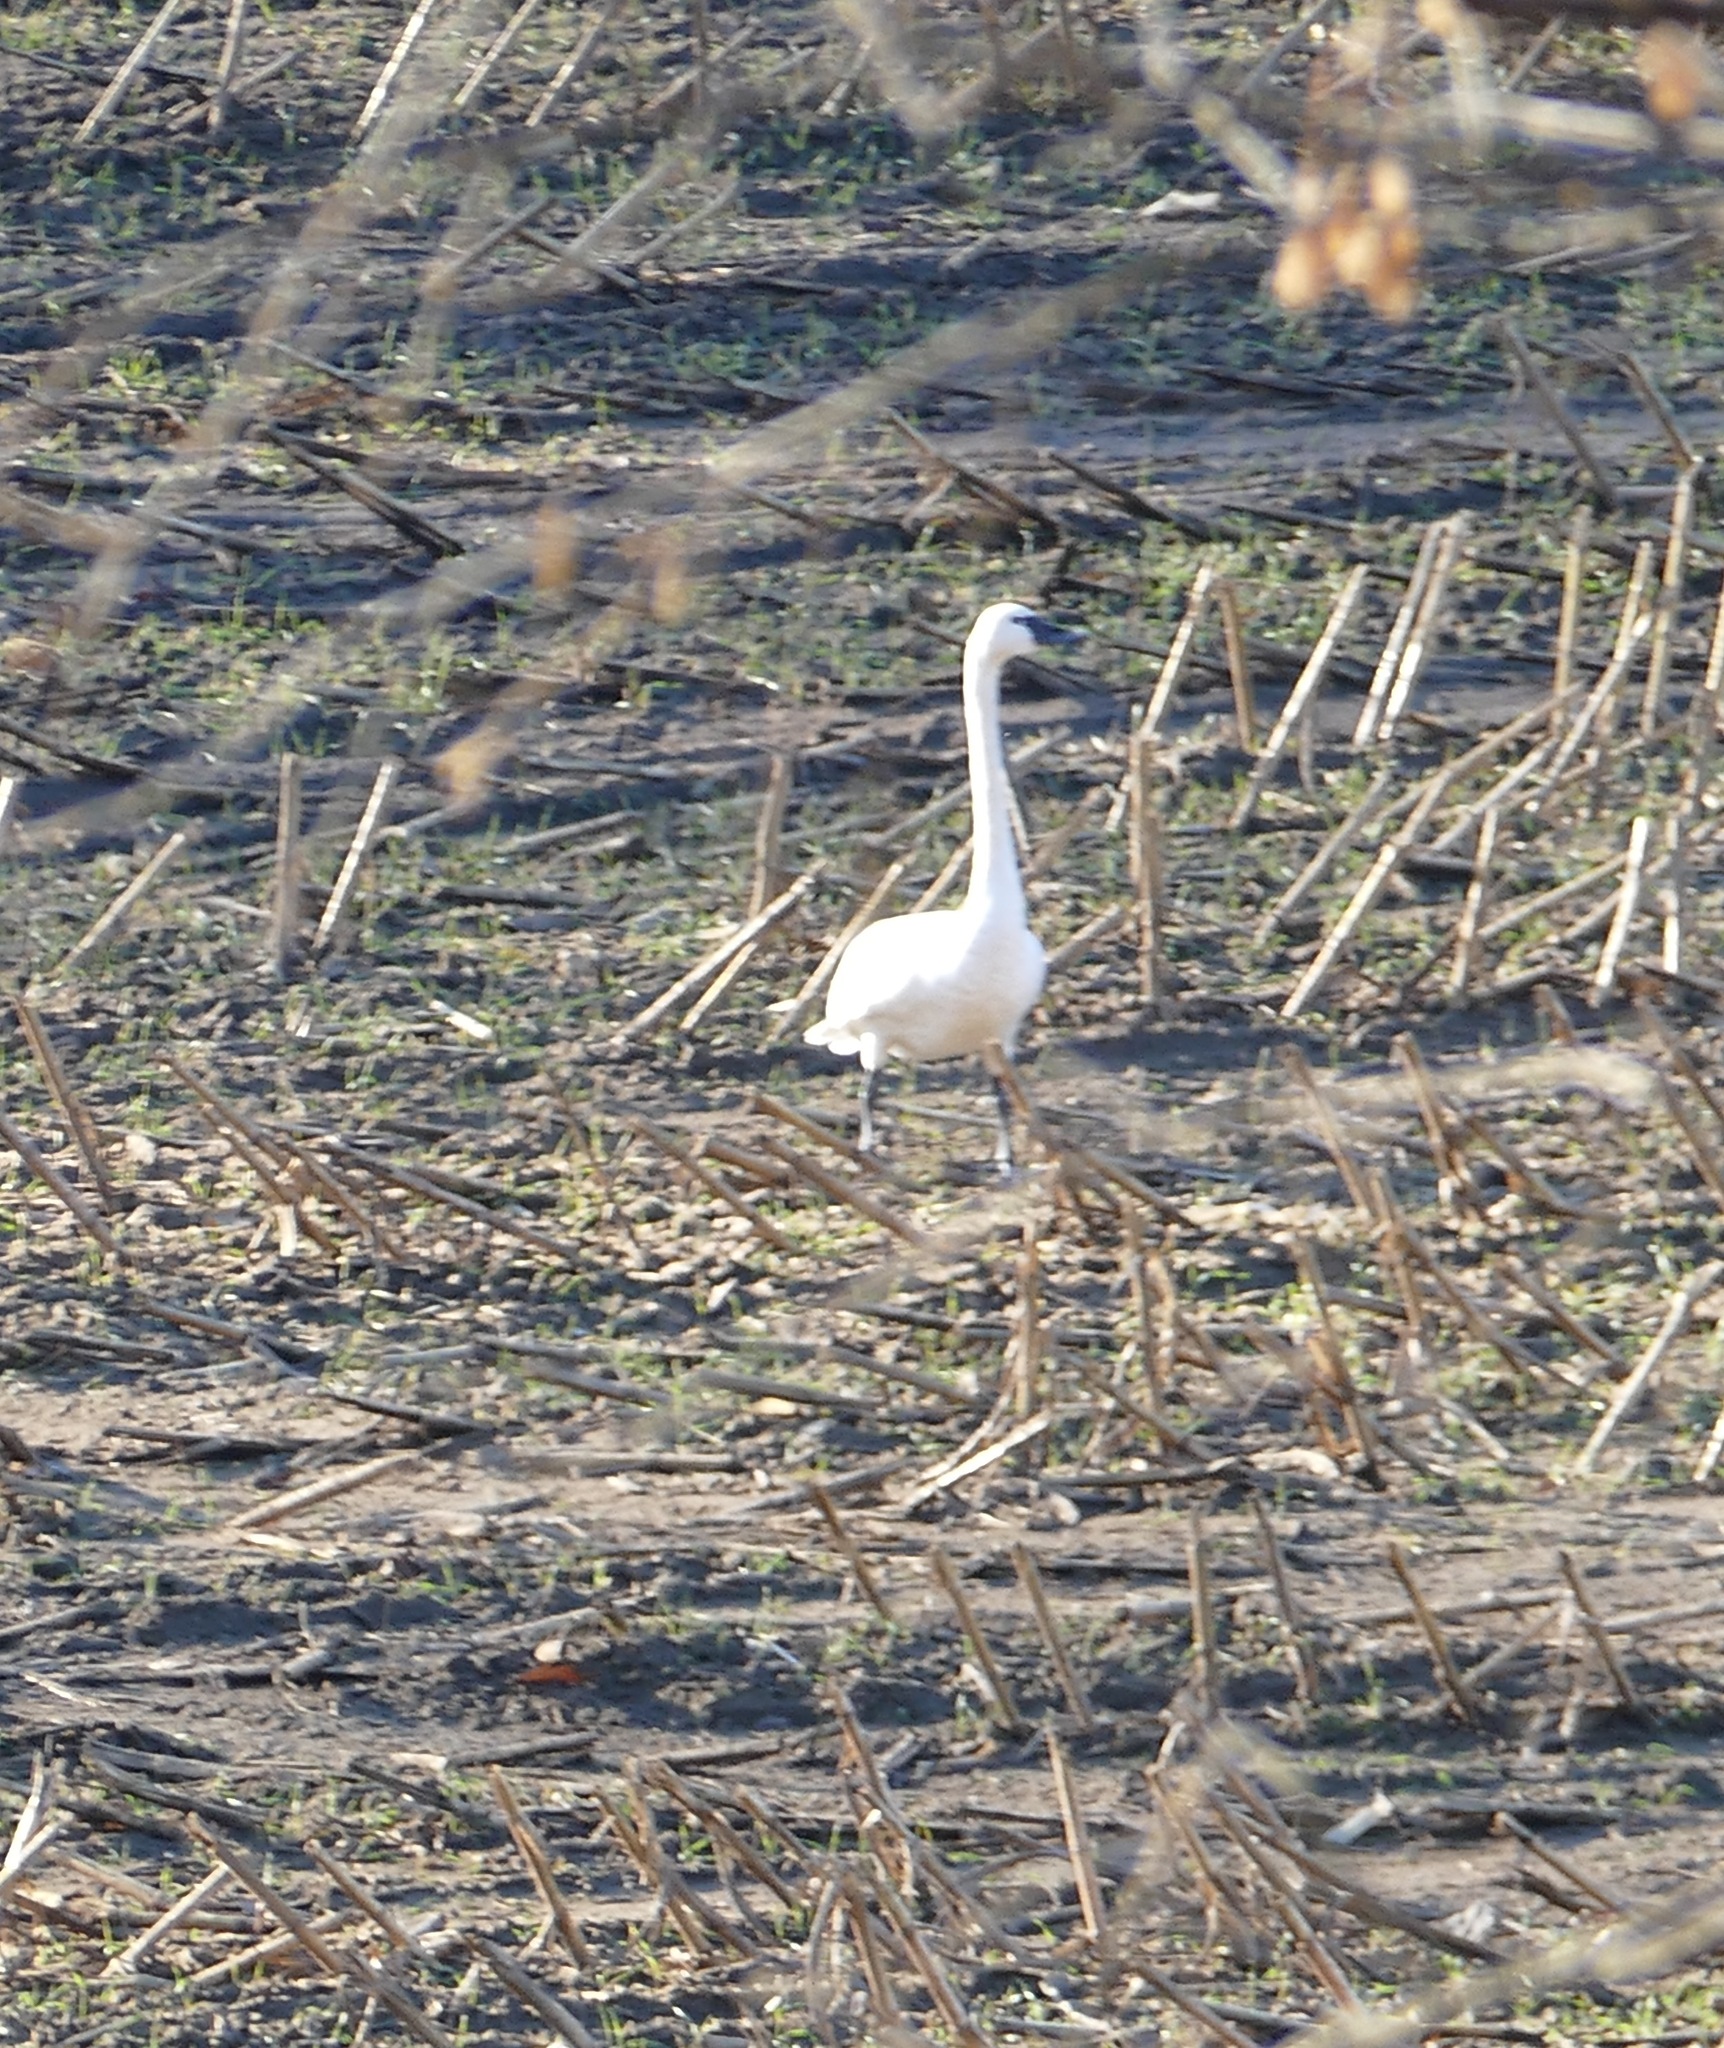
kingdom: Animalia
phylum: Chordata
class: Aves
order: Anseriformes
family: Anatidae
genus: Cygnus
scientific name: Cygnus columbianus
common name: Tundra swan
